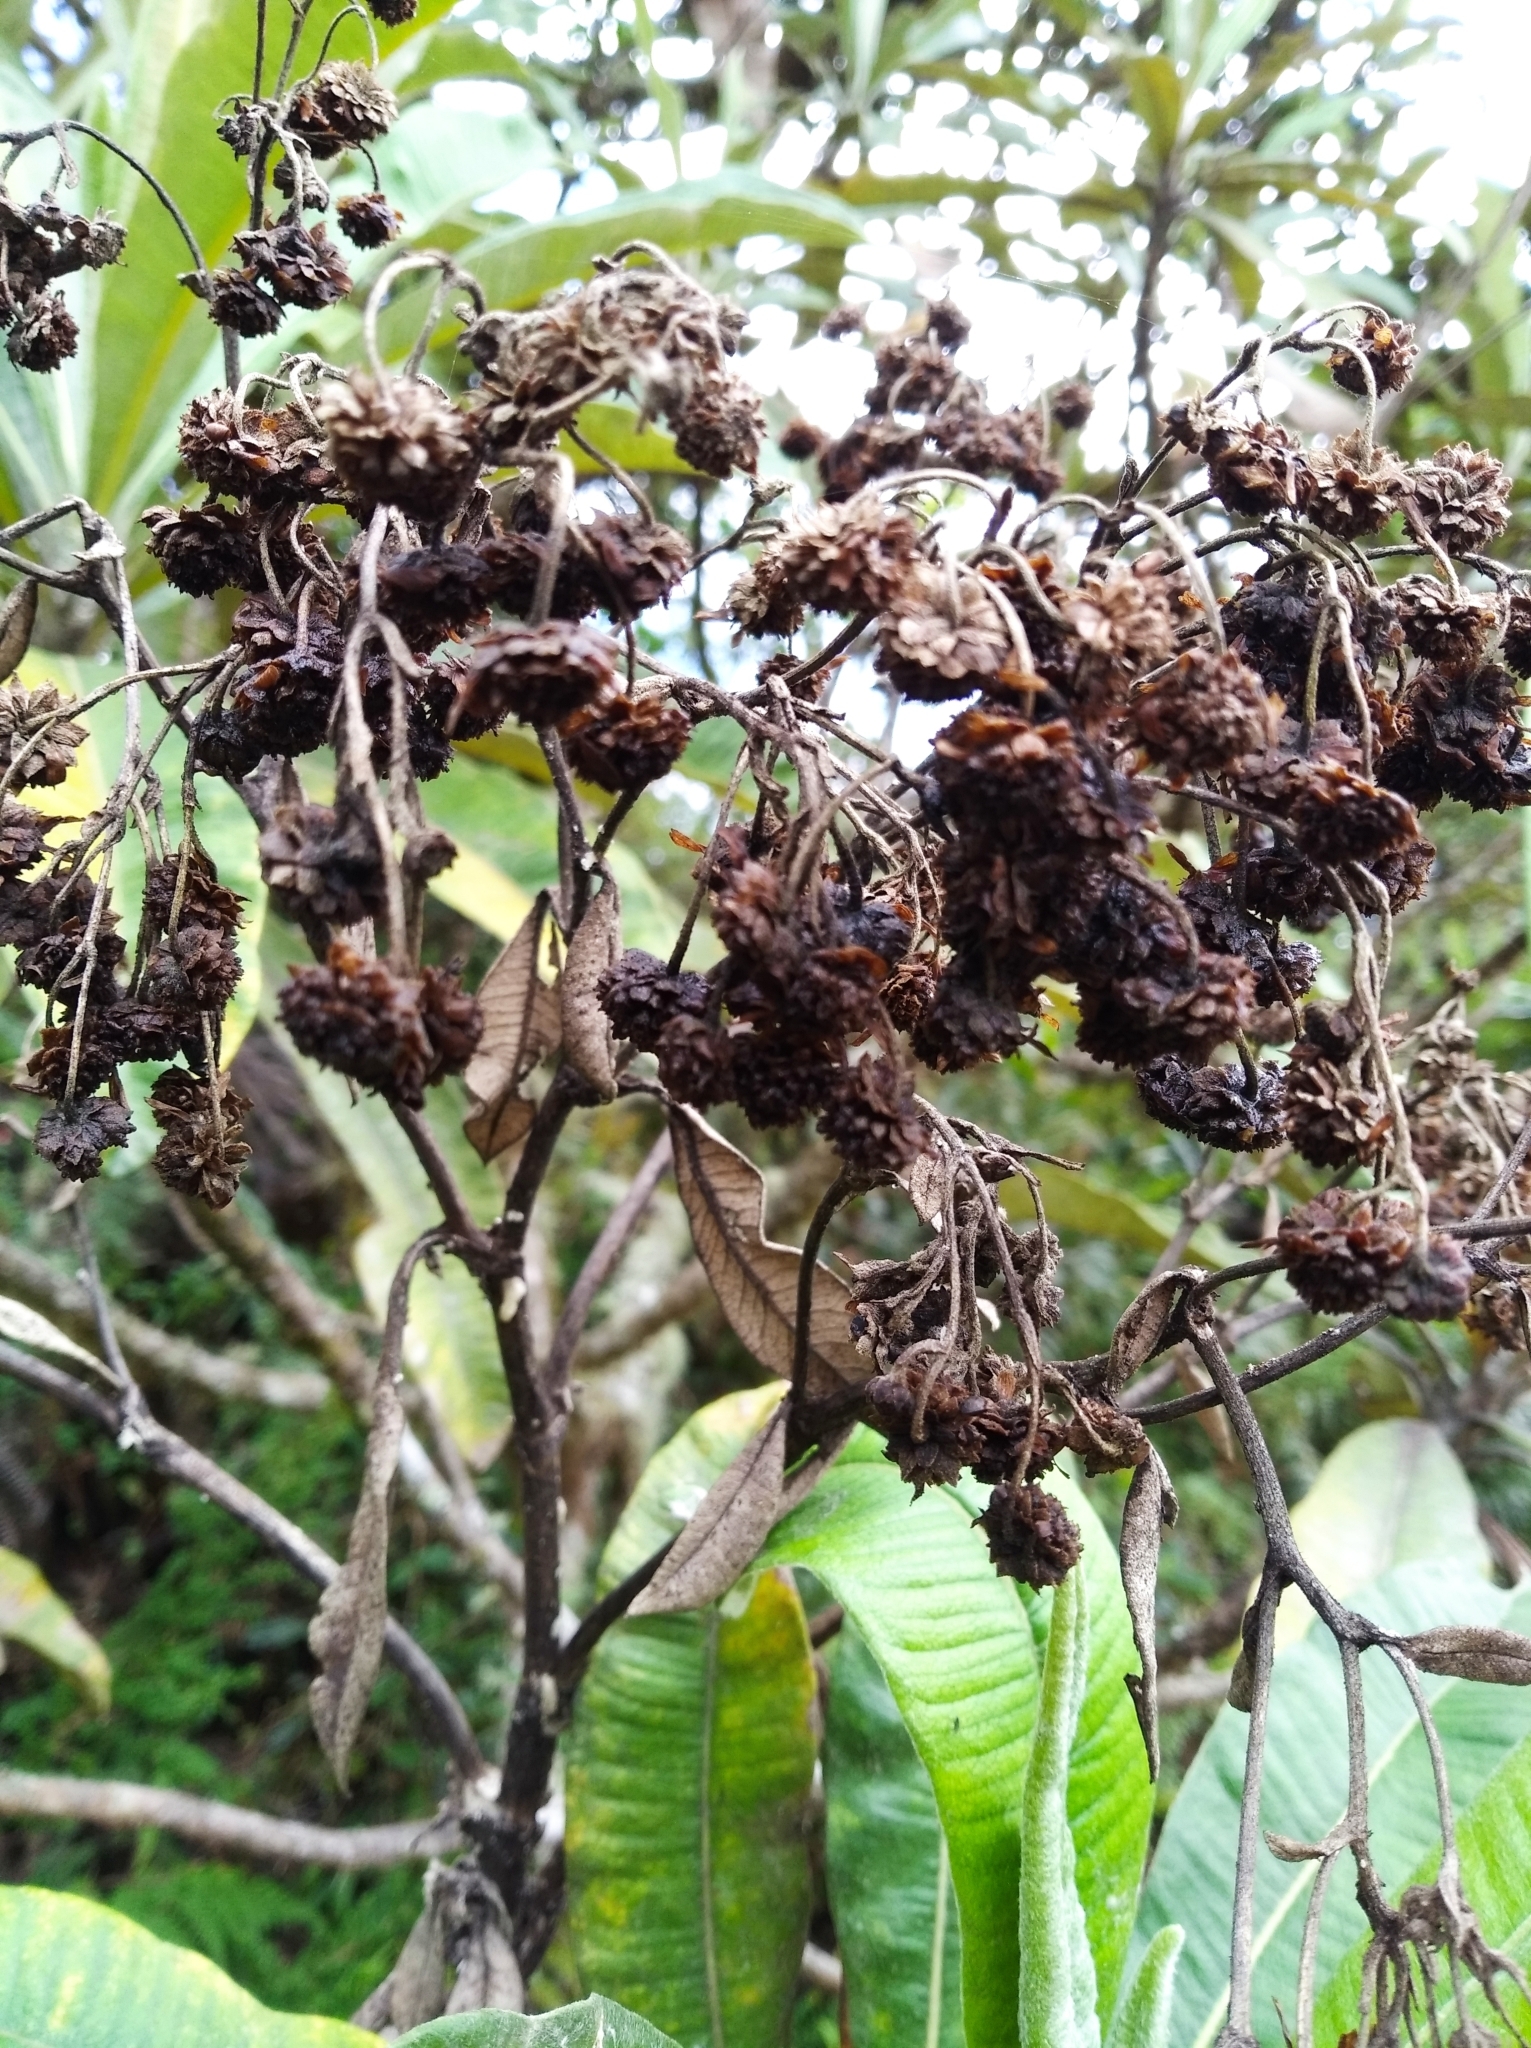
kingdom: Plantae
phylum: Tracheophyta
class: Magnoliopsida
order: Asterales
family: Asteraceae
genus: Espeletia
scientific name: Espeletia neriifolia
